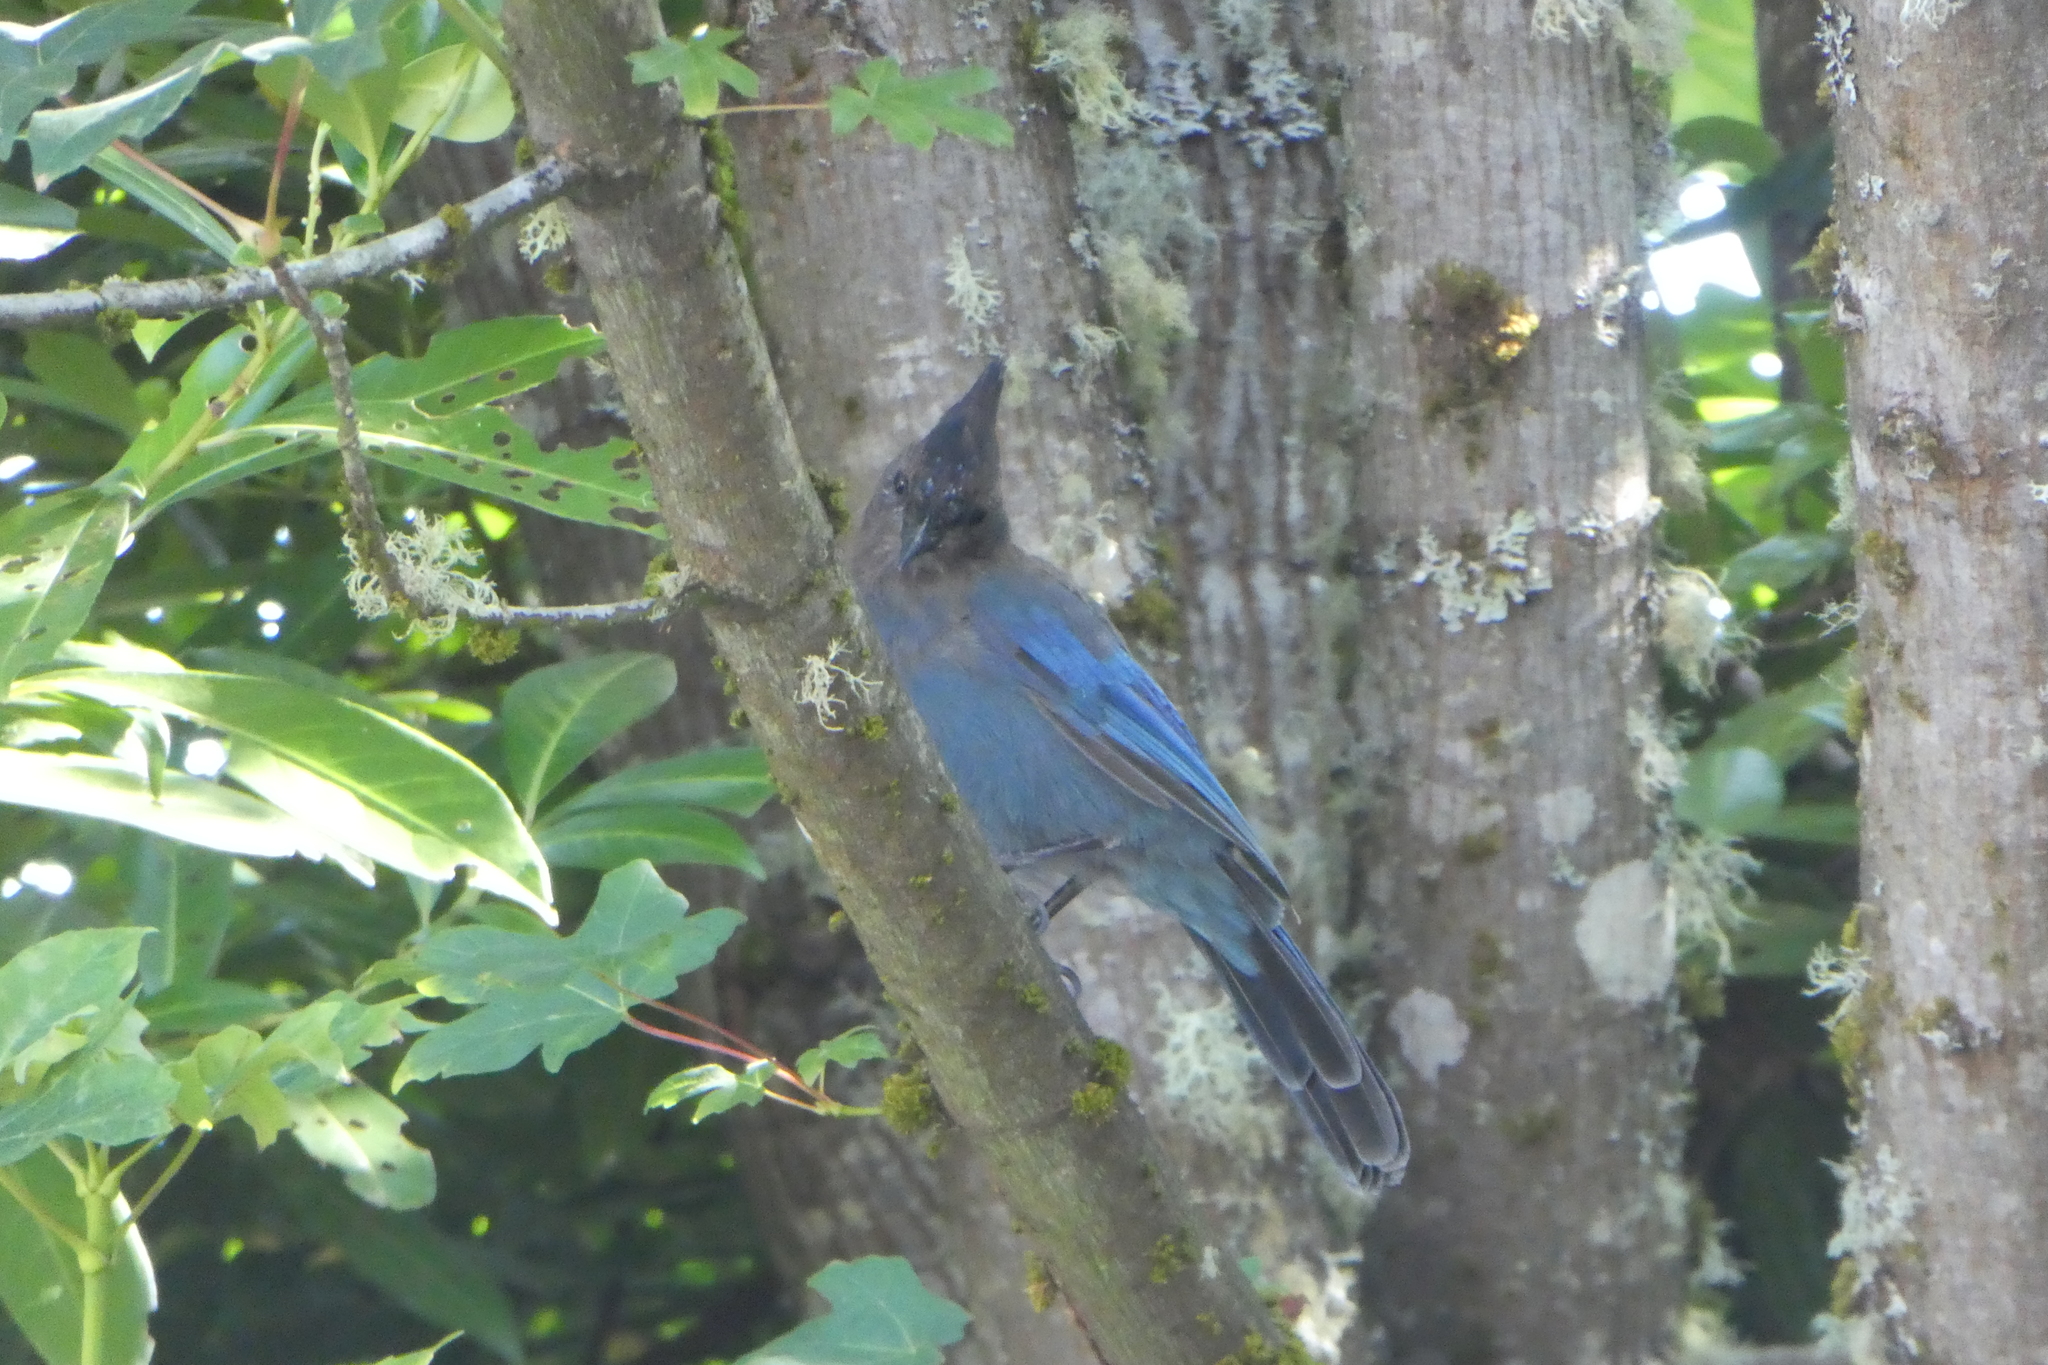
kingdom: Animalia
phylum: Chordata
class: Aves
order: Passeriformes
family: Corvidae
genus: Cyanocitta
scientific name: Cyanocitta stelleri
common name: Steller's jay
